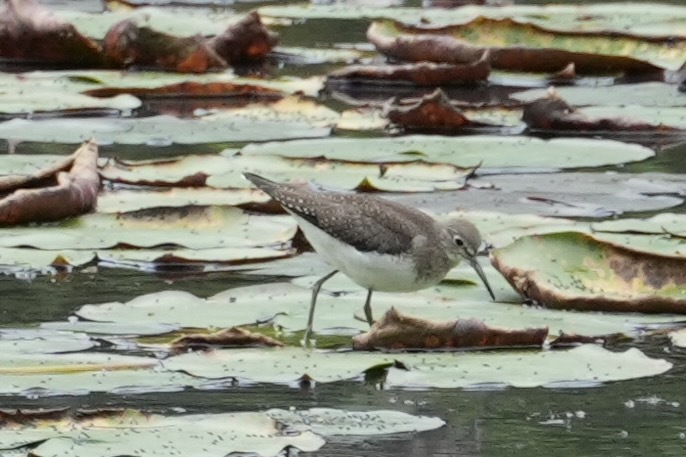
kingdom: Animalia
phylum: Chordata
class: Aves
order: Charadriiformes
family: Scolopacidae
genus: Tringa
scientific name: Tringa solitaria
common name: Solitary sandpiper
